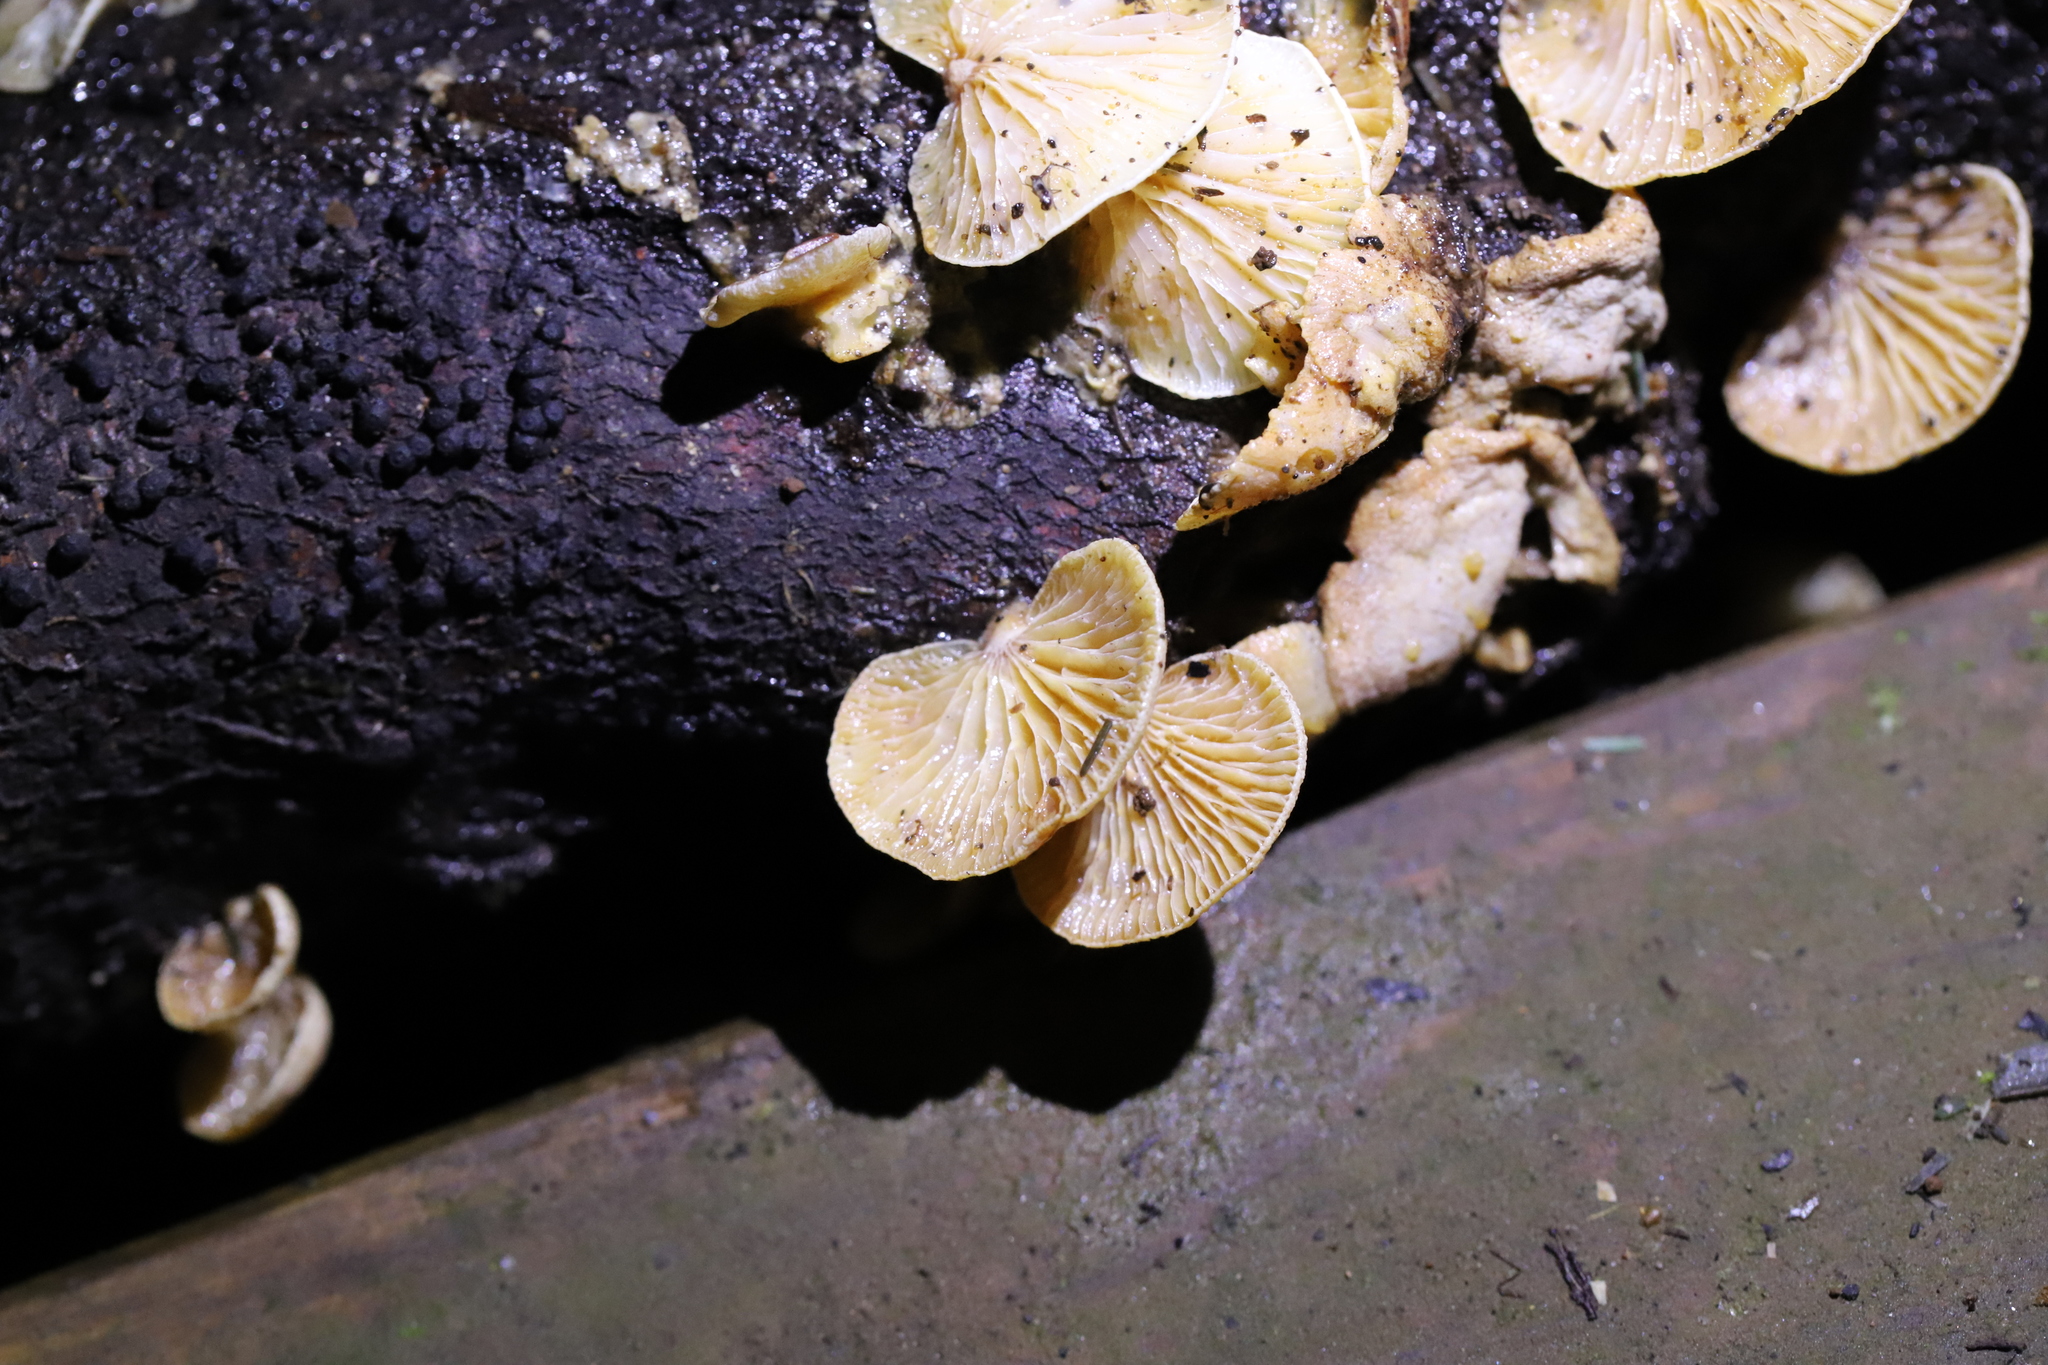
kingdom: Fungi
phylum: Basidiomycota
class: Agaricomycetes
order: Agaricales
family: Mycenaceae
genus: Panellus
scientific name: Panellus stipticus
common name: Bitter oysterling
